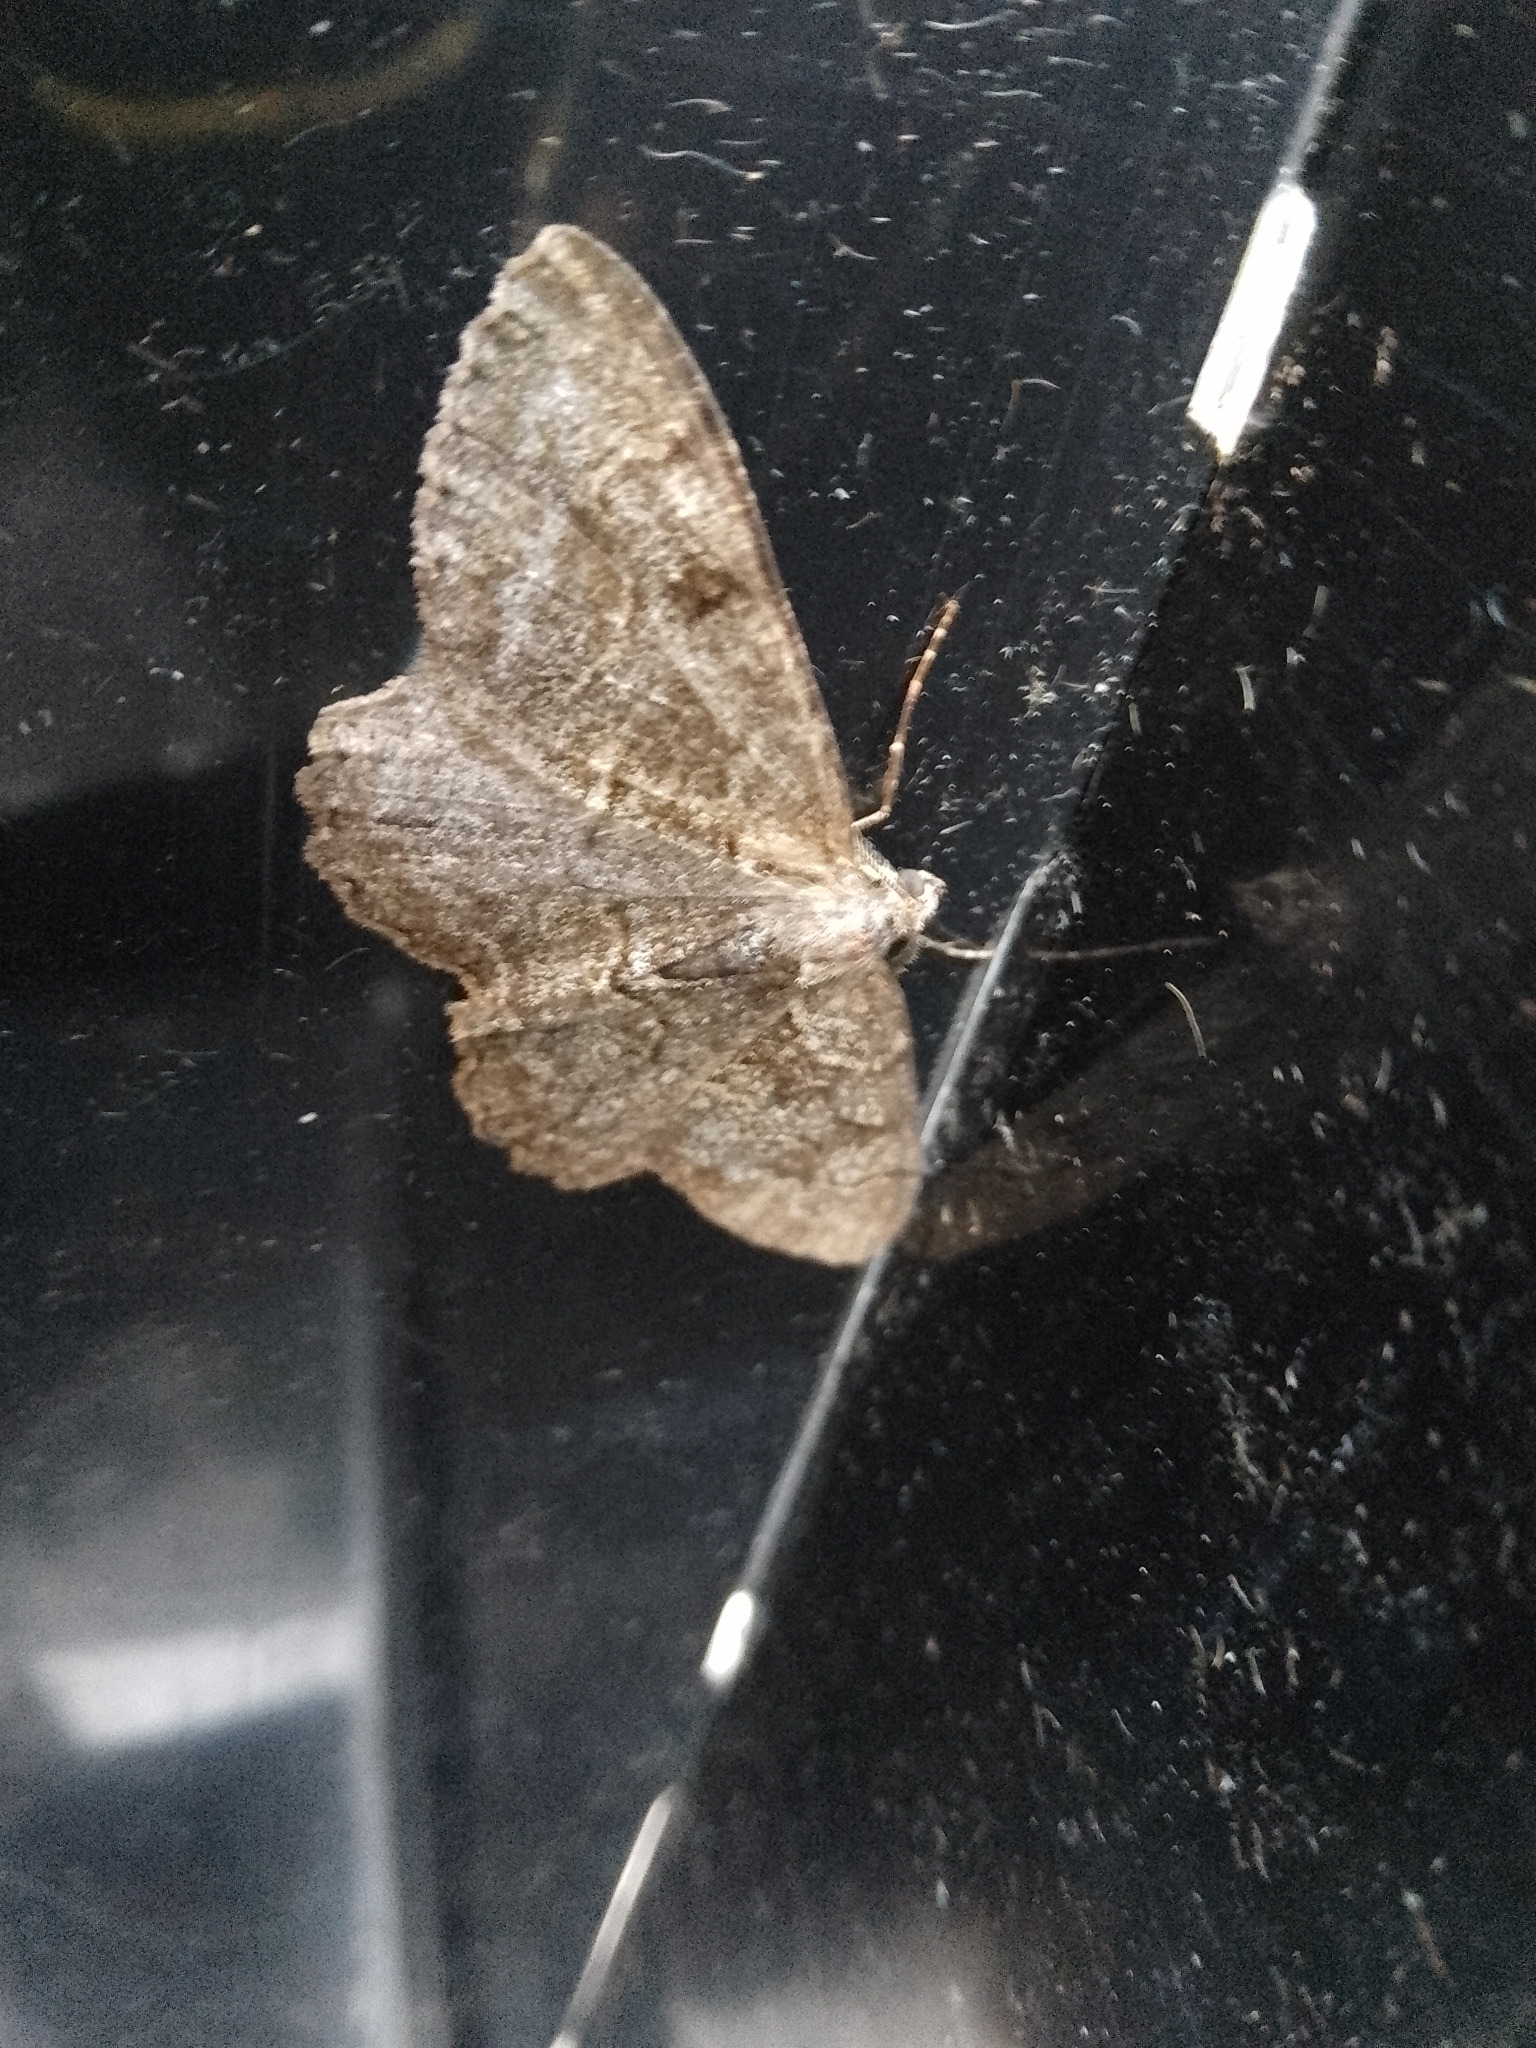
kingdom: Animalia
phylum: Arthropoda
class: Insecta
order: Lepidoptera
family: Geometridae
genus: Alcis
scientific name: Alcis repandata
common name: Mottled beauty
